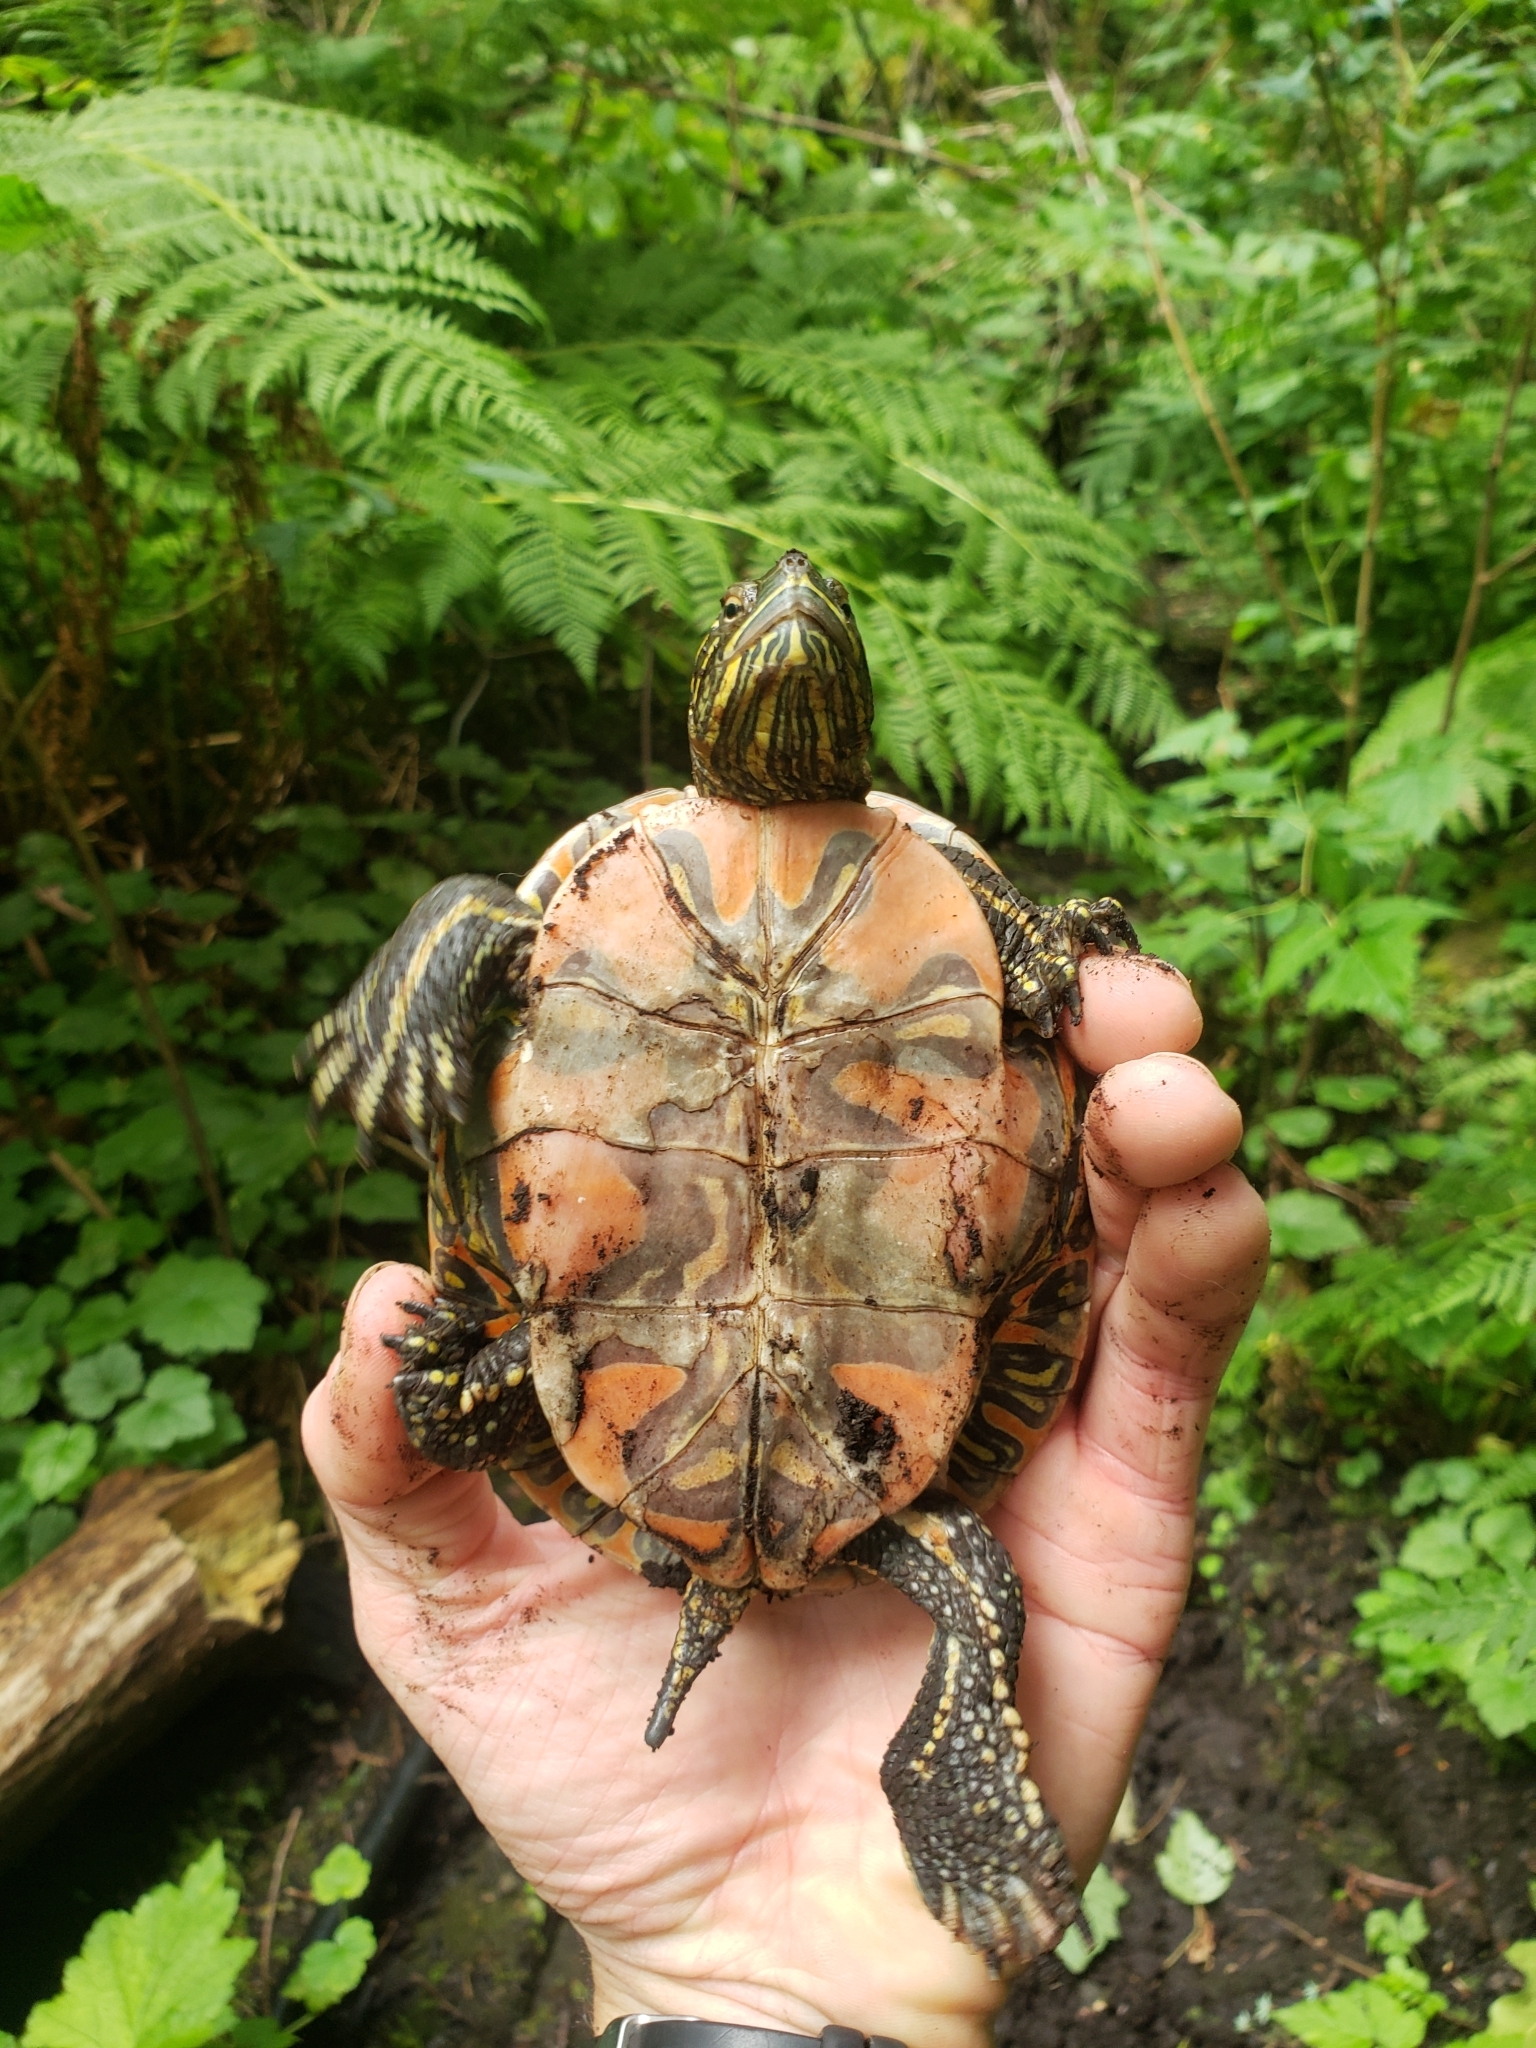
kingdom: Animalia
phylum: Chordata
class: Testudines
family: Emydidae
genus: Chrysemys
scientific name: Chrysemys picta
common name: Painted turtle
